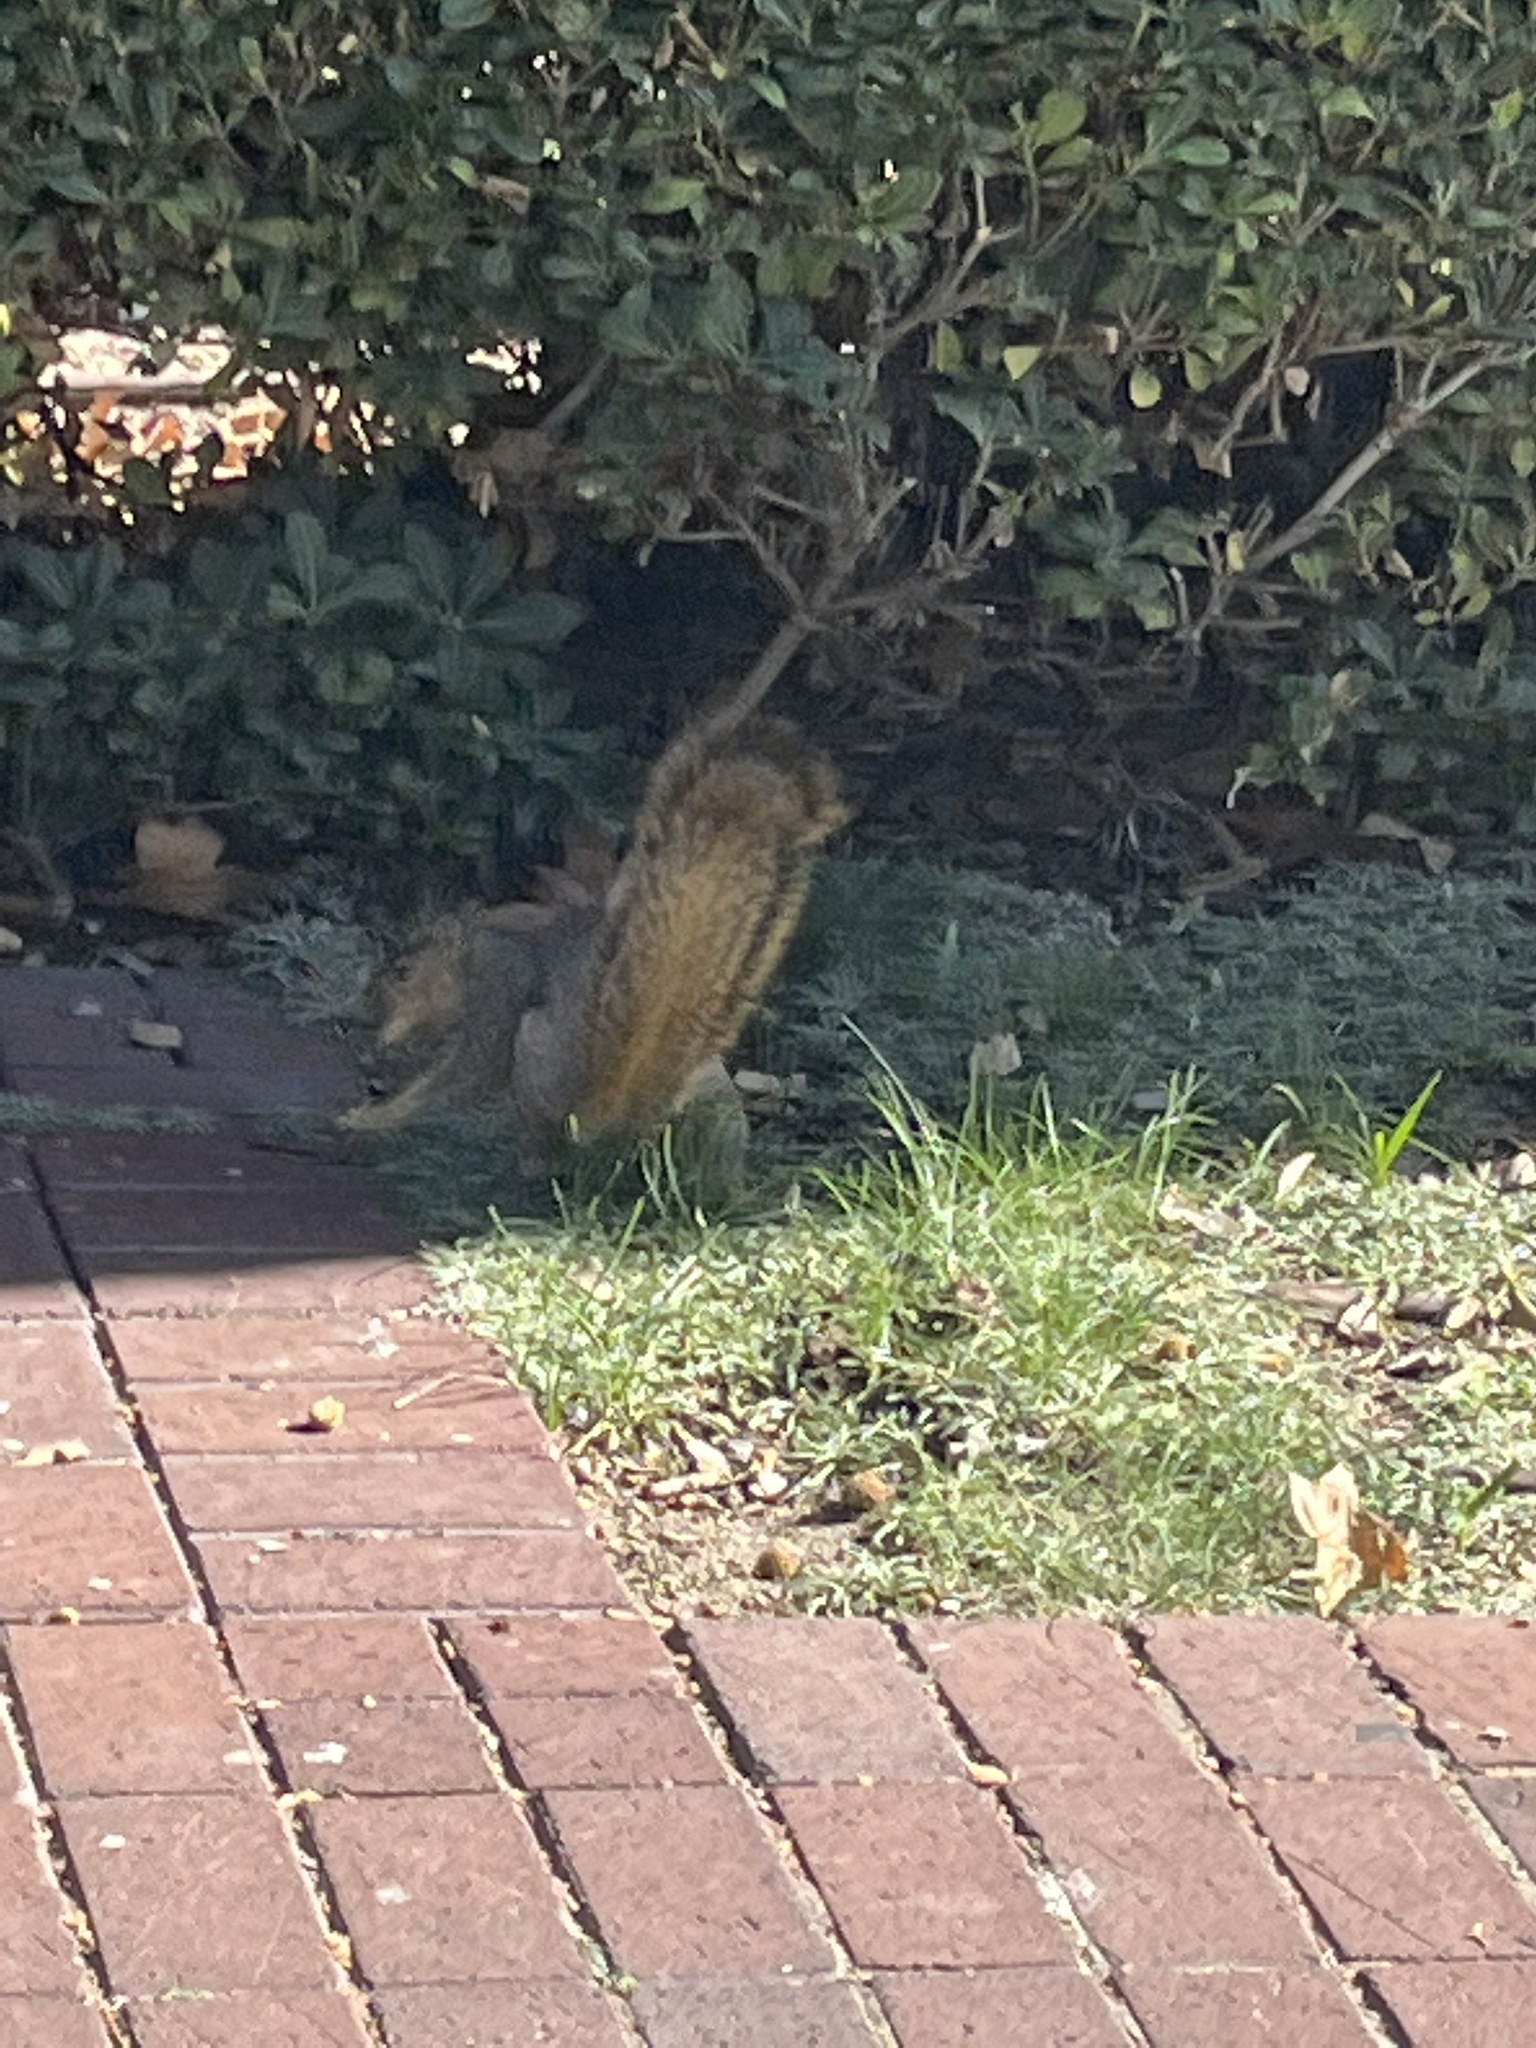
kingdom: Animalia
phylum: Chordata
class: Mammalia
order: Rodentia
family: Sciuridae
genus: Sciurus
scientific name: Sciurus niger
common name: Fox squirrel
